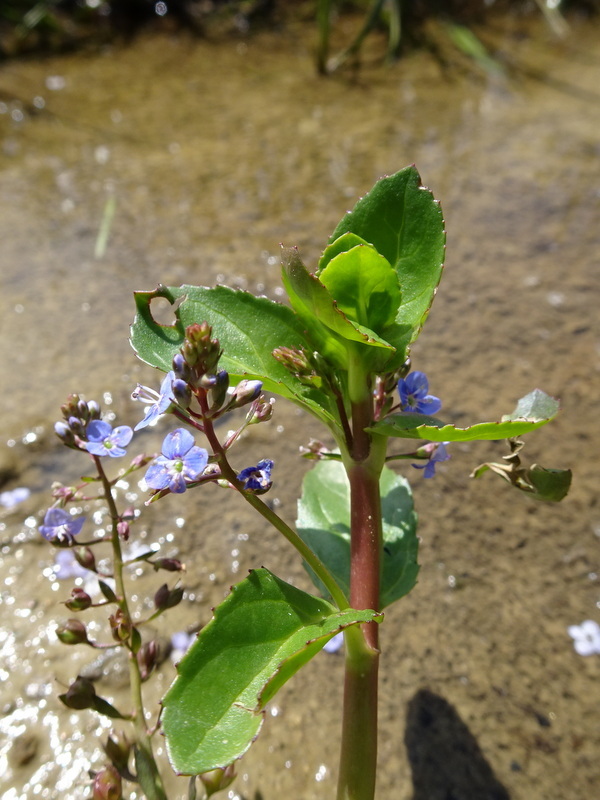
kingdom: Plantae
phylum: Tracheophyta
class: Magnoliopsida
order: Lamiales
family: Plantaginaceae
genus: Veronica
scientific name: Veronica beccabunga
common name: Brooklime
